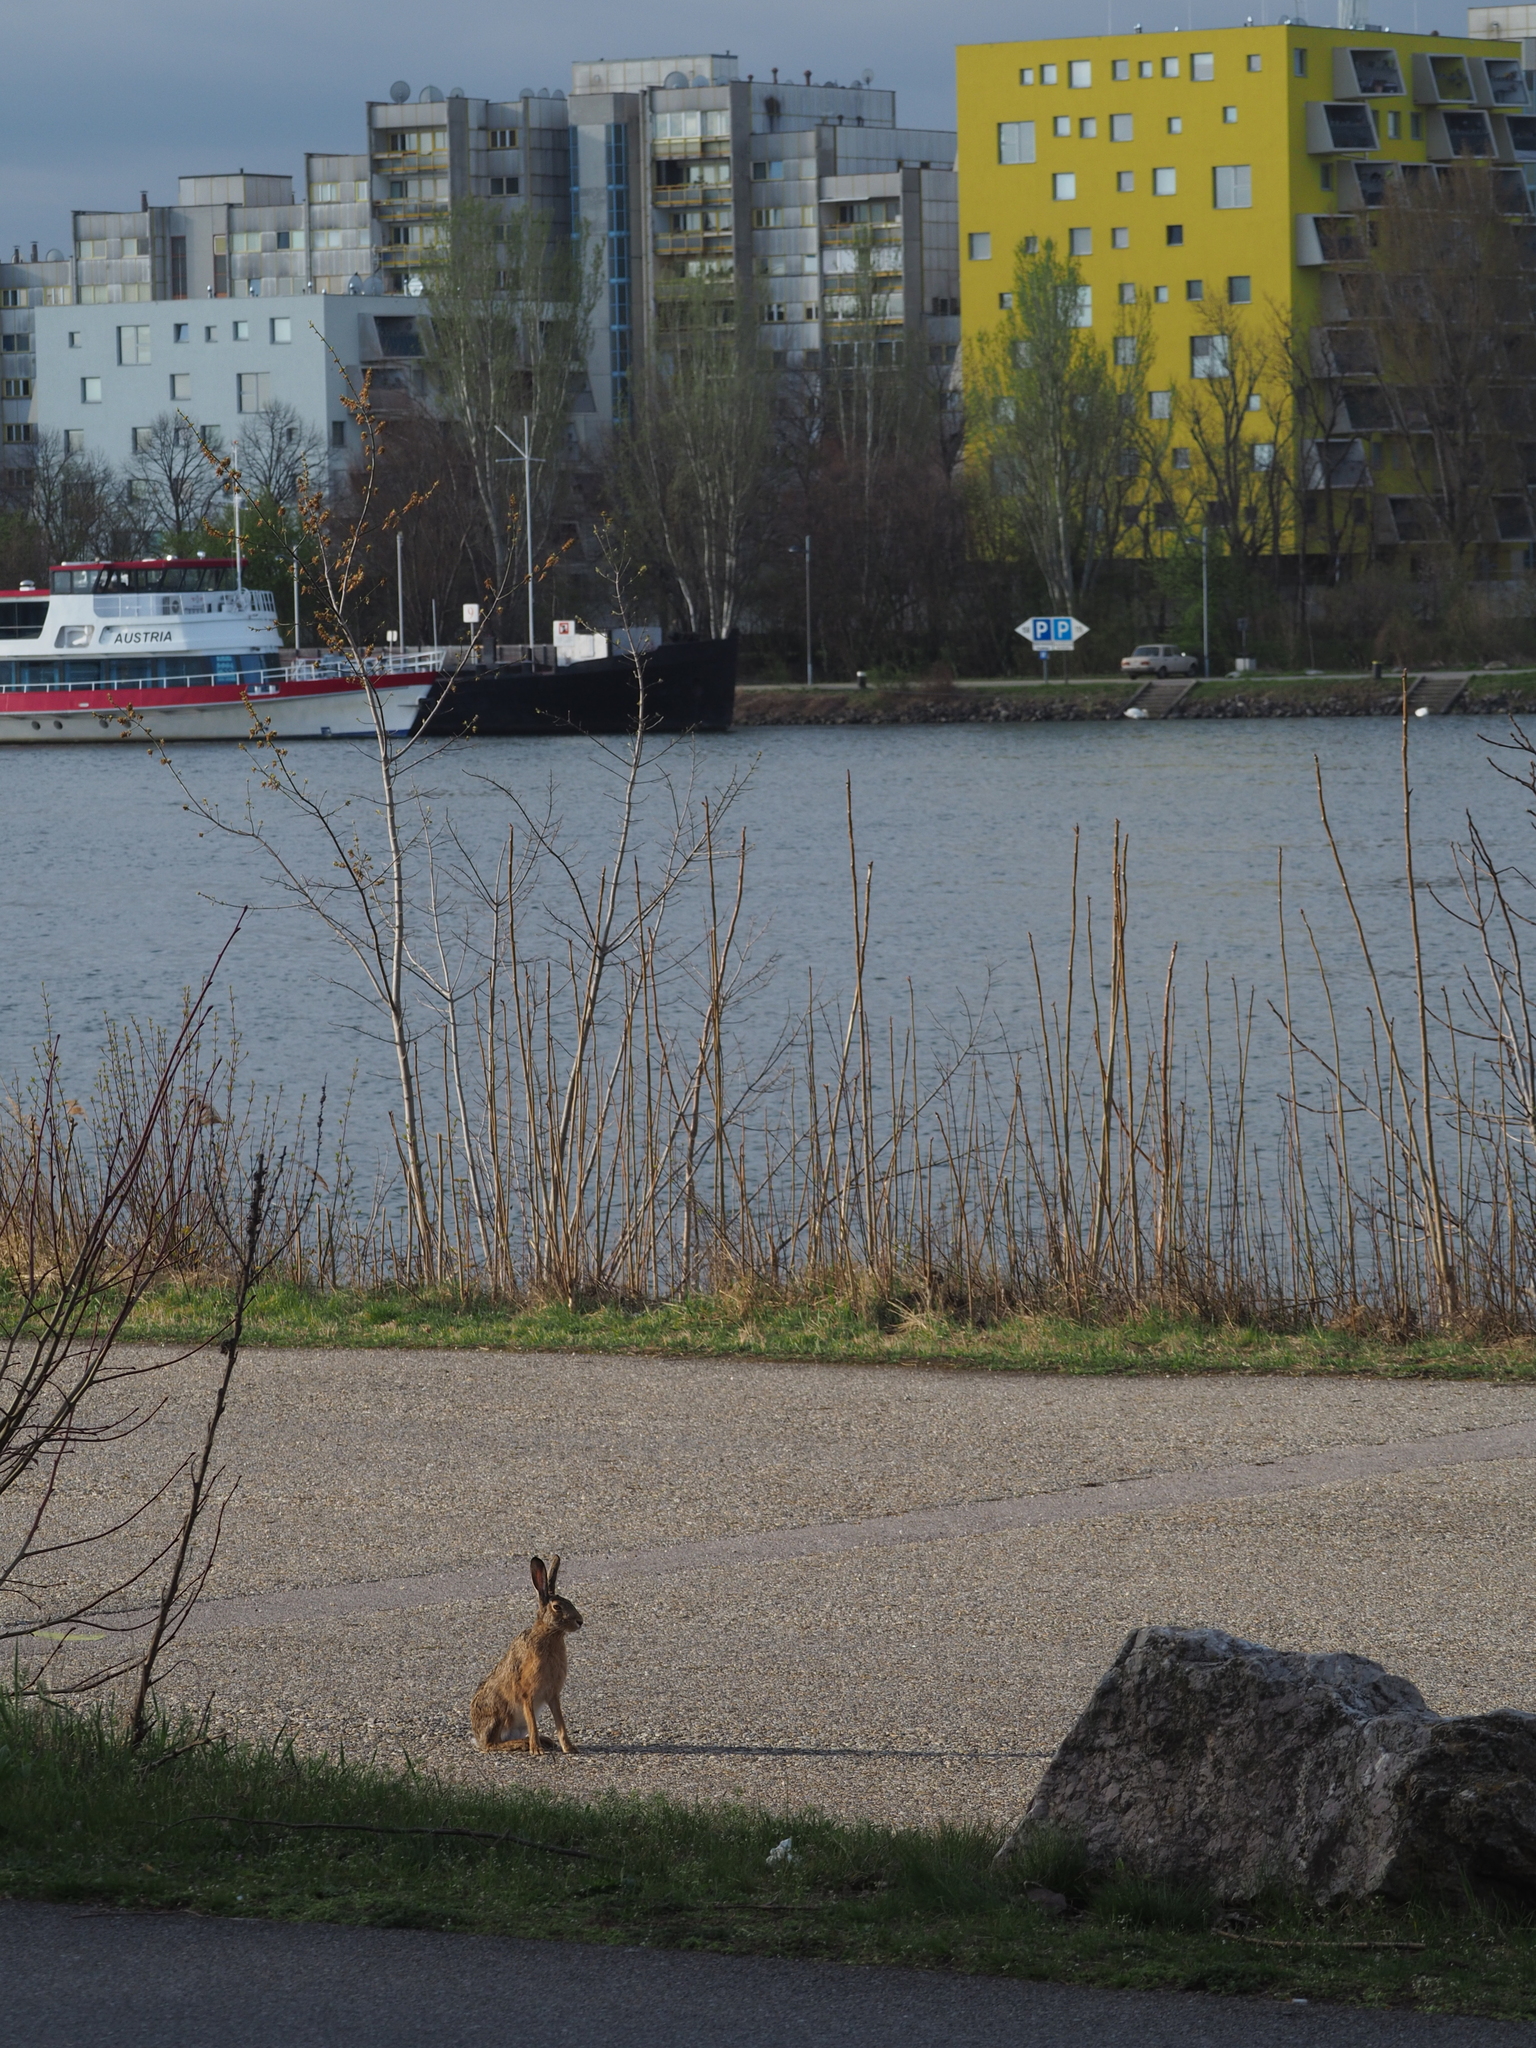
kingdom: Animalia
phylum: Chordata
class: Mammalia
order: Lagomorpha
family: Leporidae
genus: Lepus
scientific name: Lepus europaeus
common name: European hare
